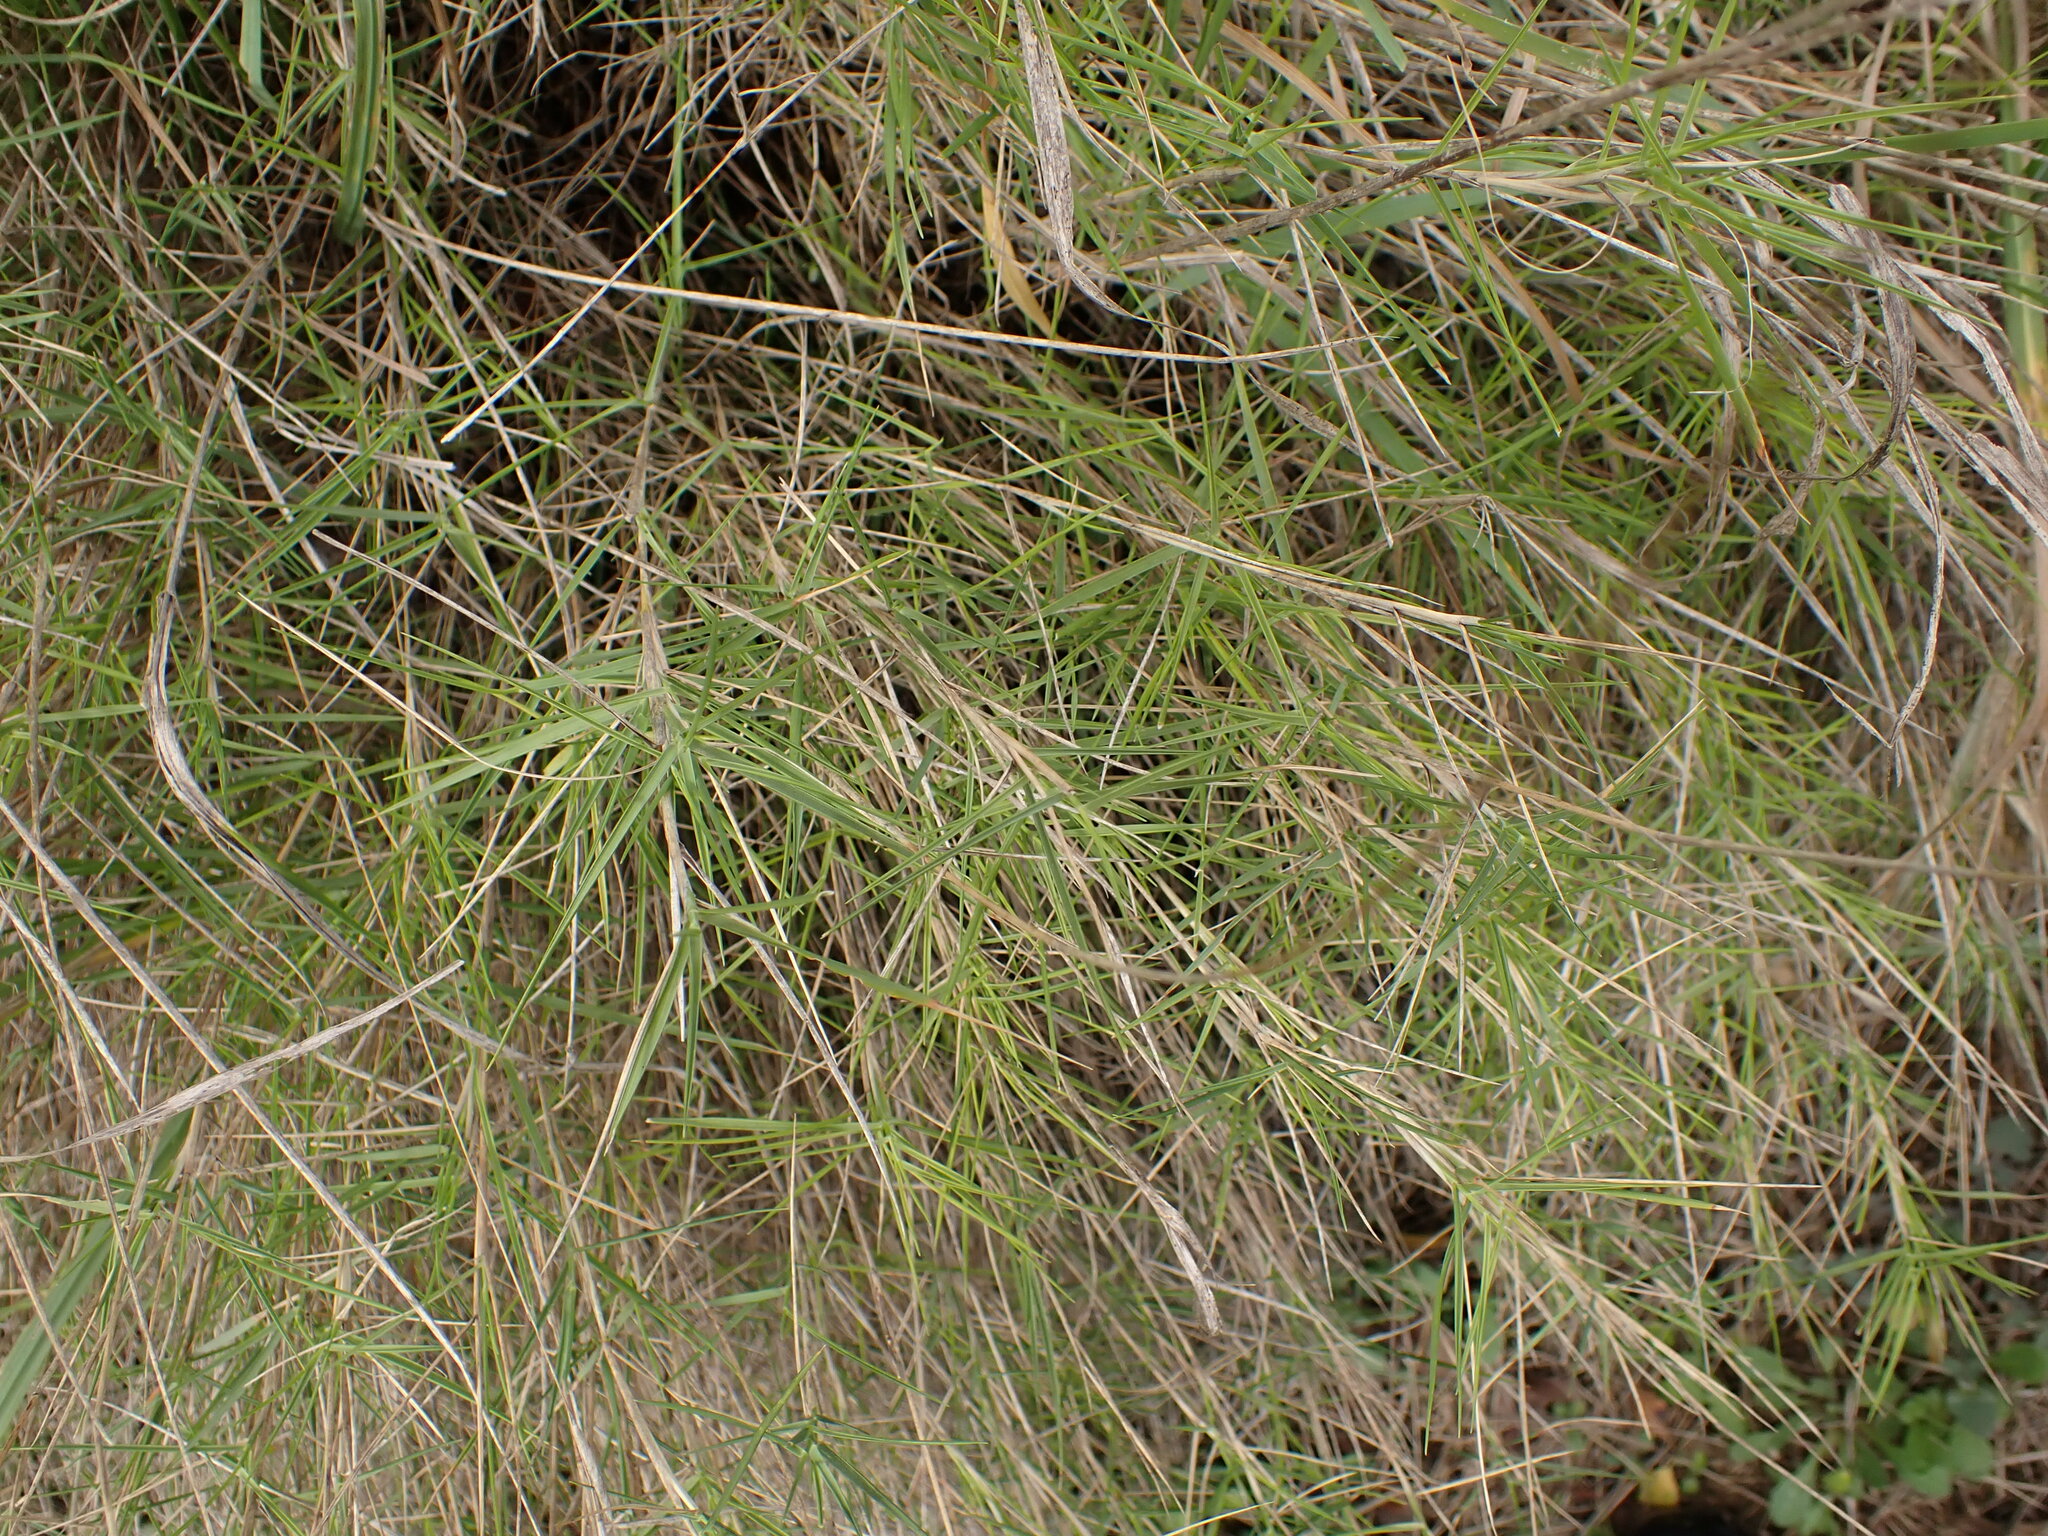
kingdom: Plantae
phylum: Tracheophyta
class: Liliopsida
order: Poales
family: Poaceae
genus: Brachypodium
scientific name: Brachypodium retusum
